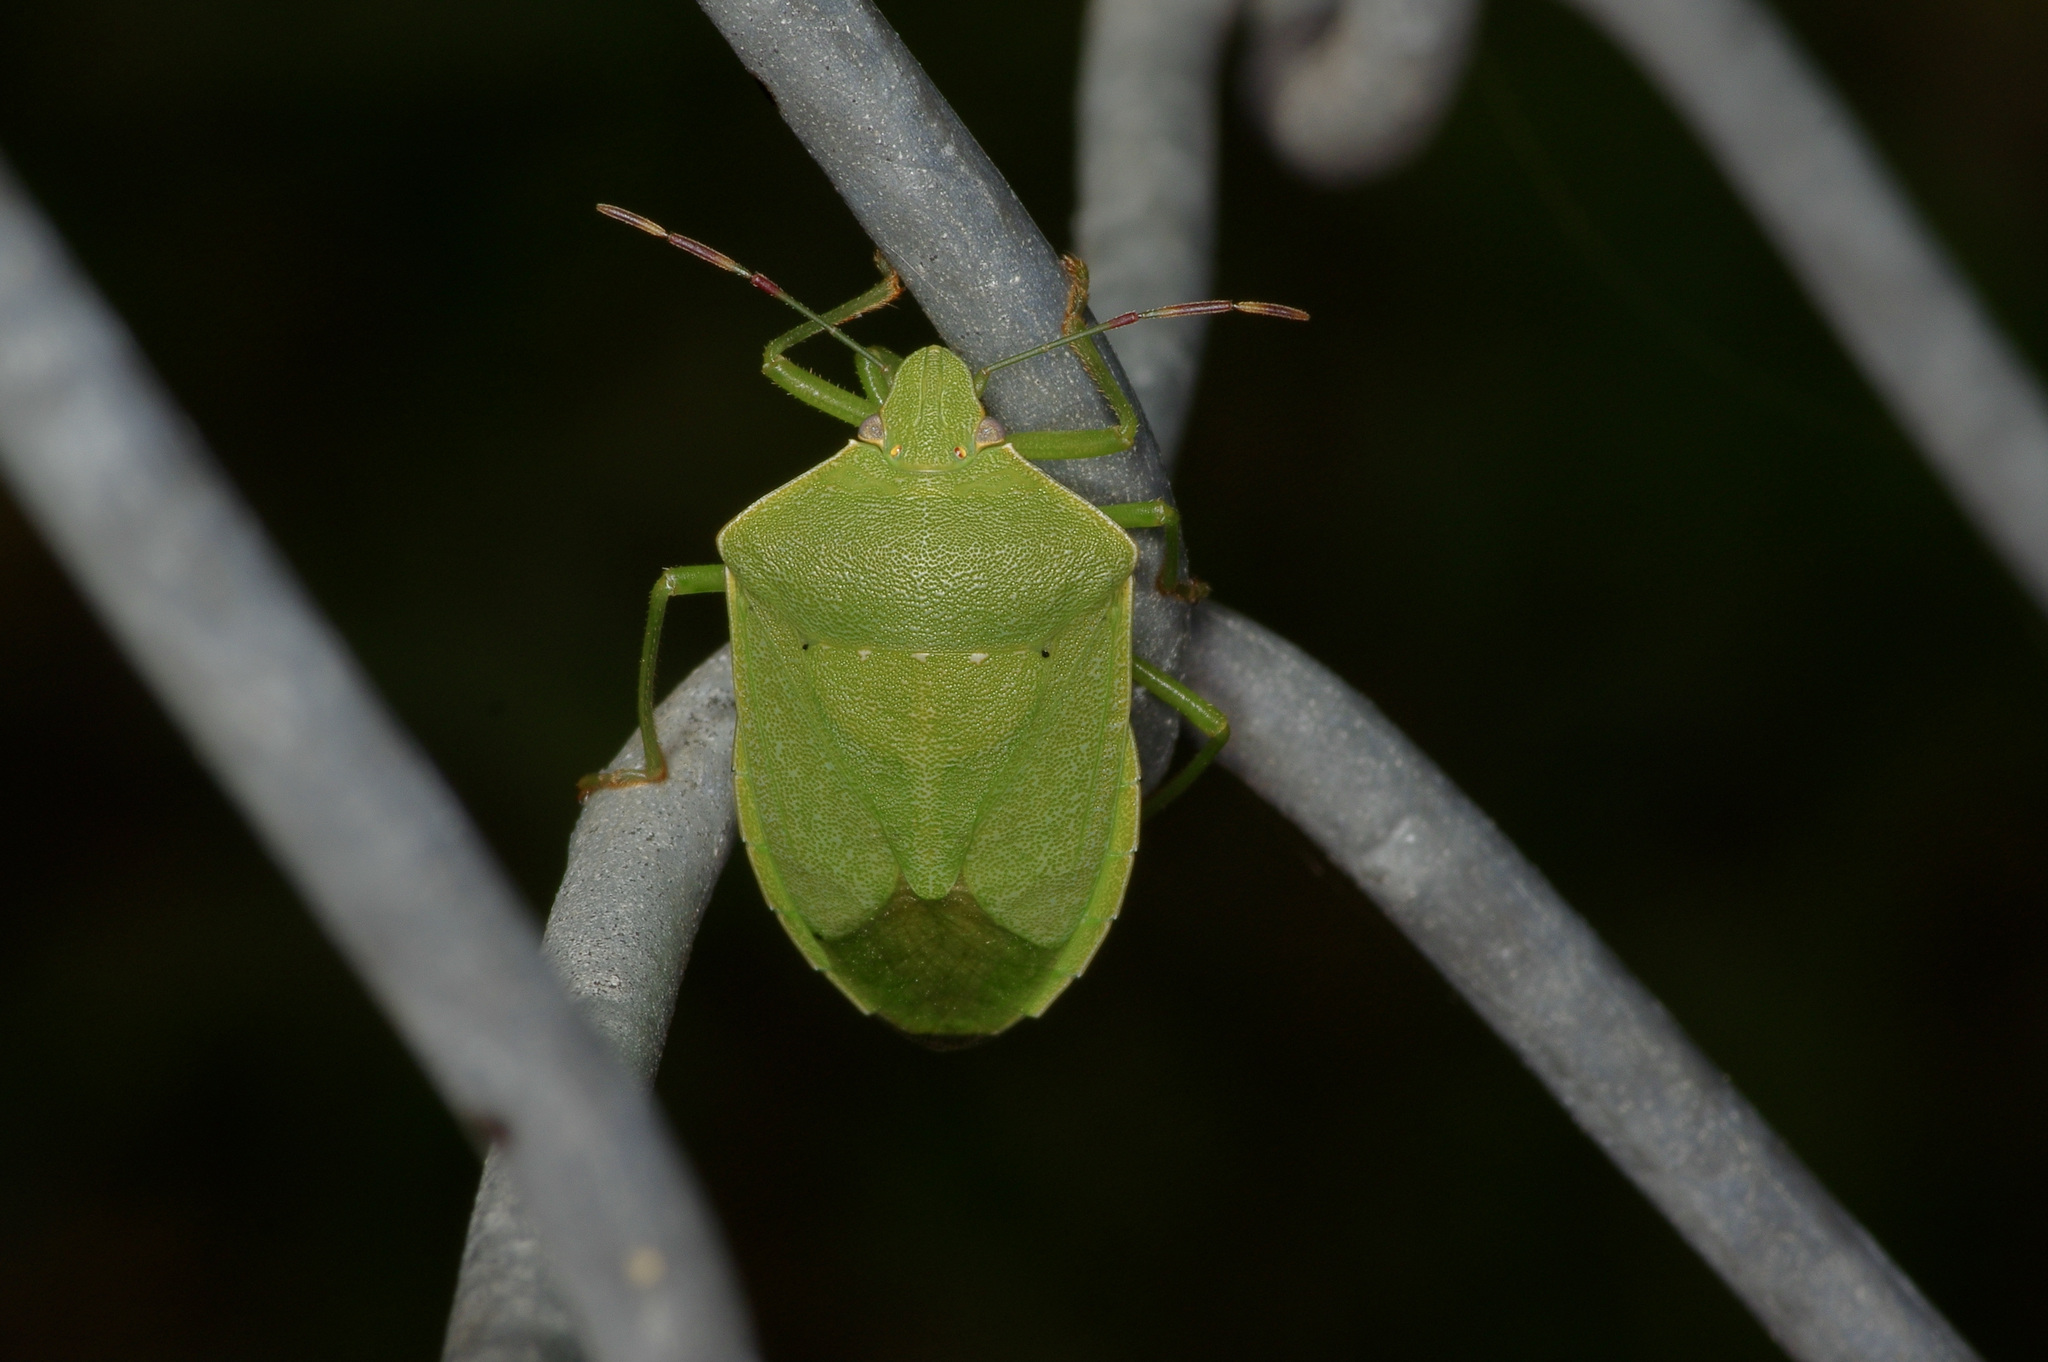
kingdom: Animalia
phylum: Arthropoda
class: Insecta
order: Hemiptera
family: Pentatomidae
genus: Nezara
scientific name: Nezara viridula
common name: Southern green stink bug
